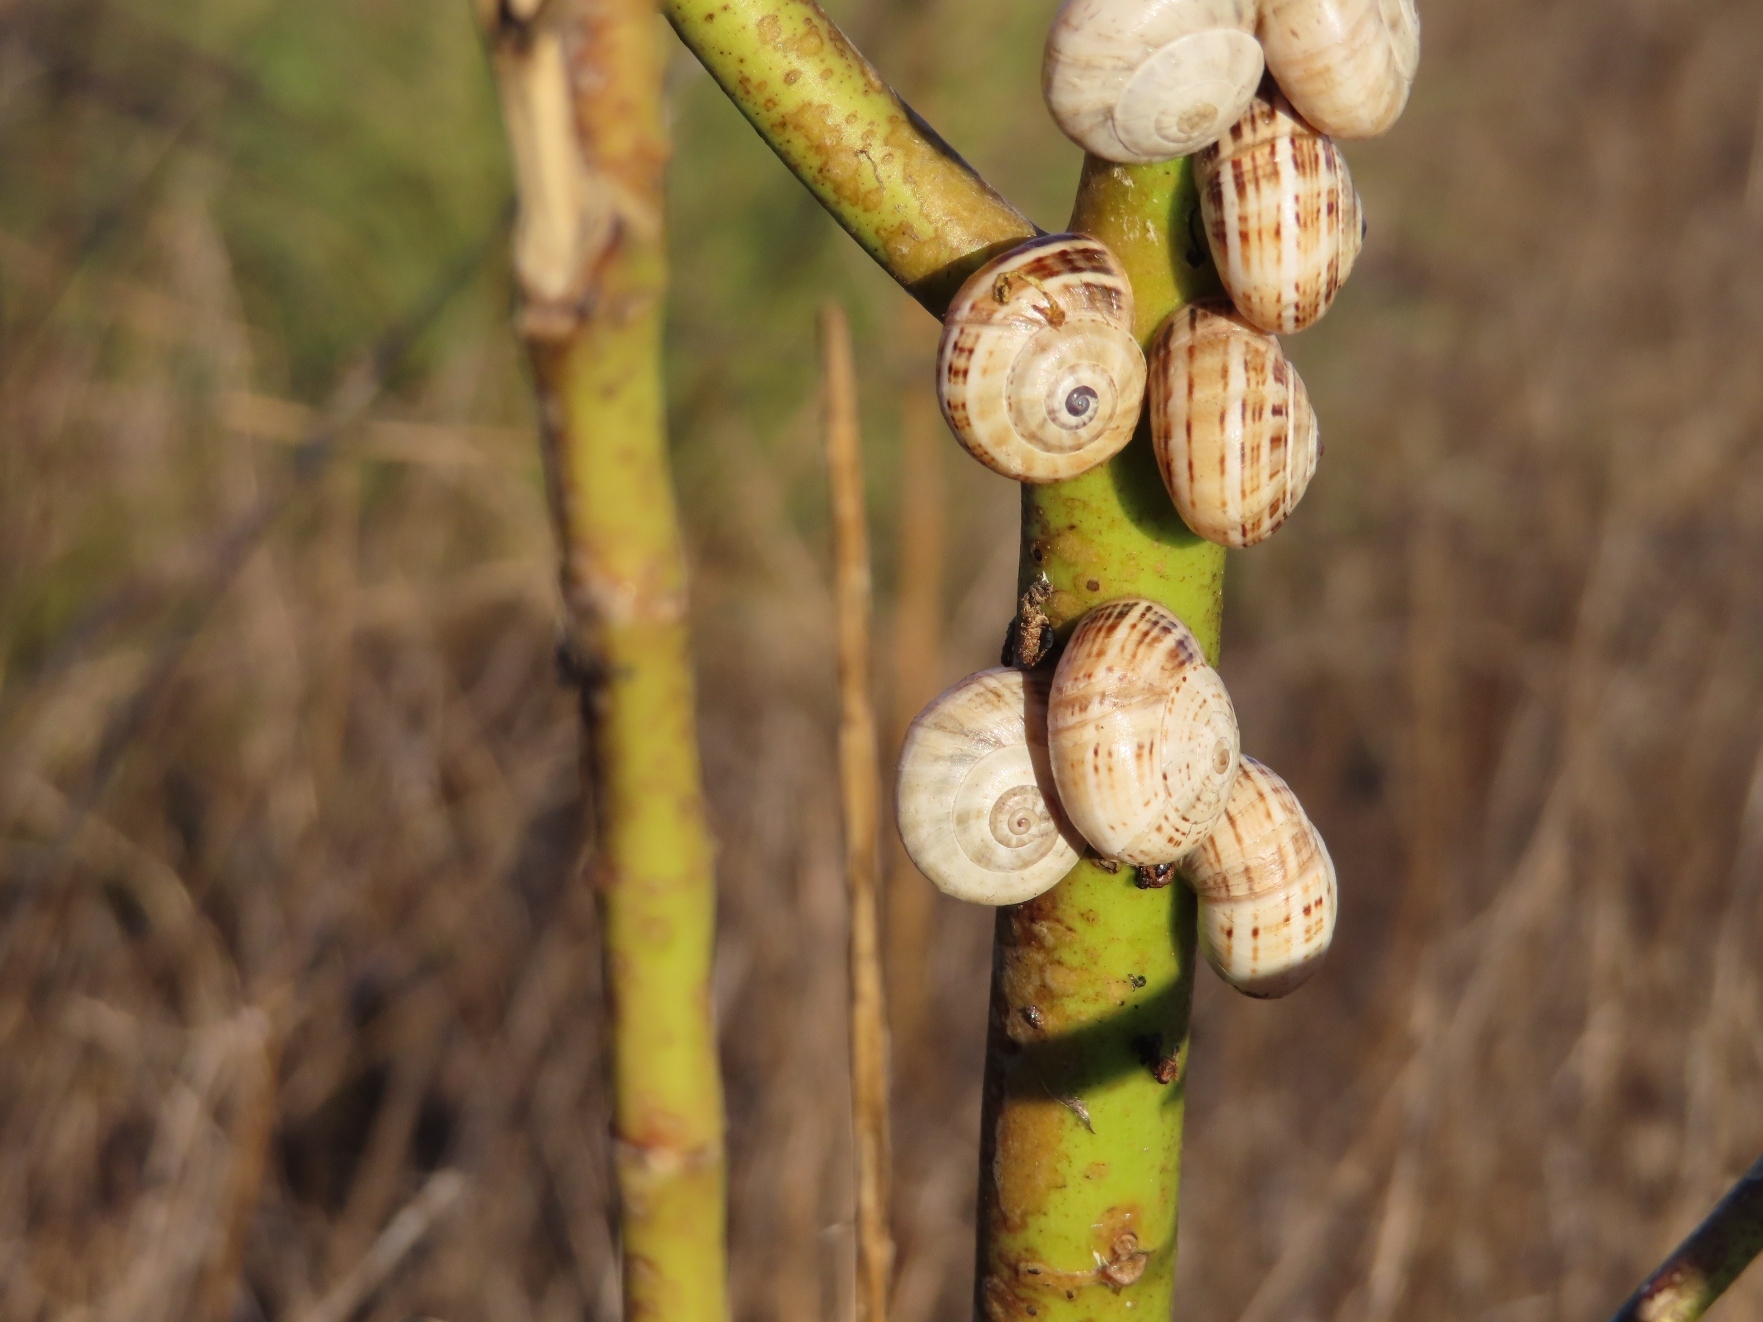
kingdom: Animalia
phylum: Mollusca
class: Gastropoda
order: Stylommatophora
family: Helicidae
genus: Theba
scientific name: Theba pisana
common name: White snail
